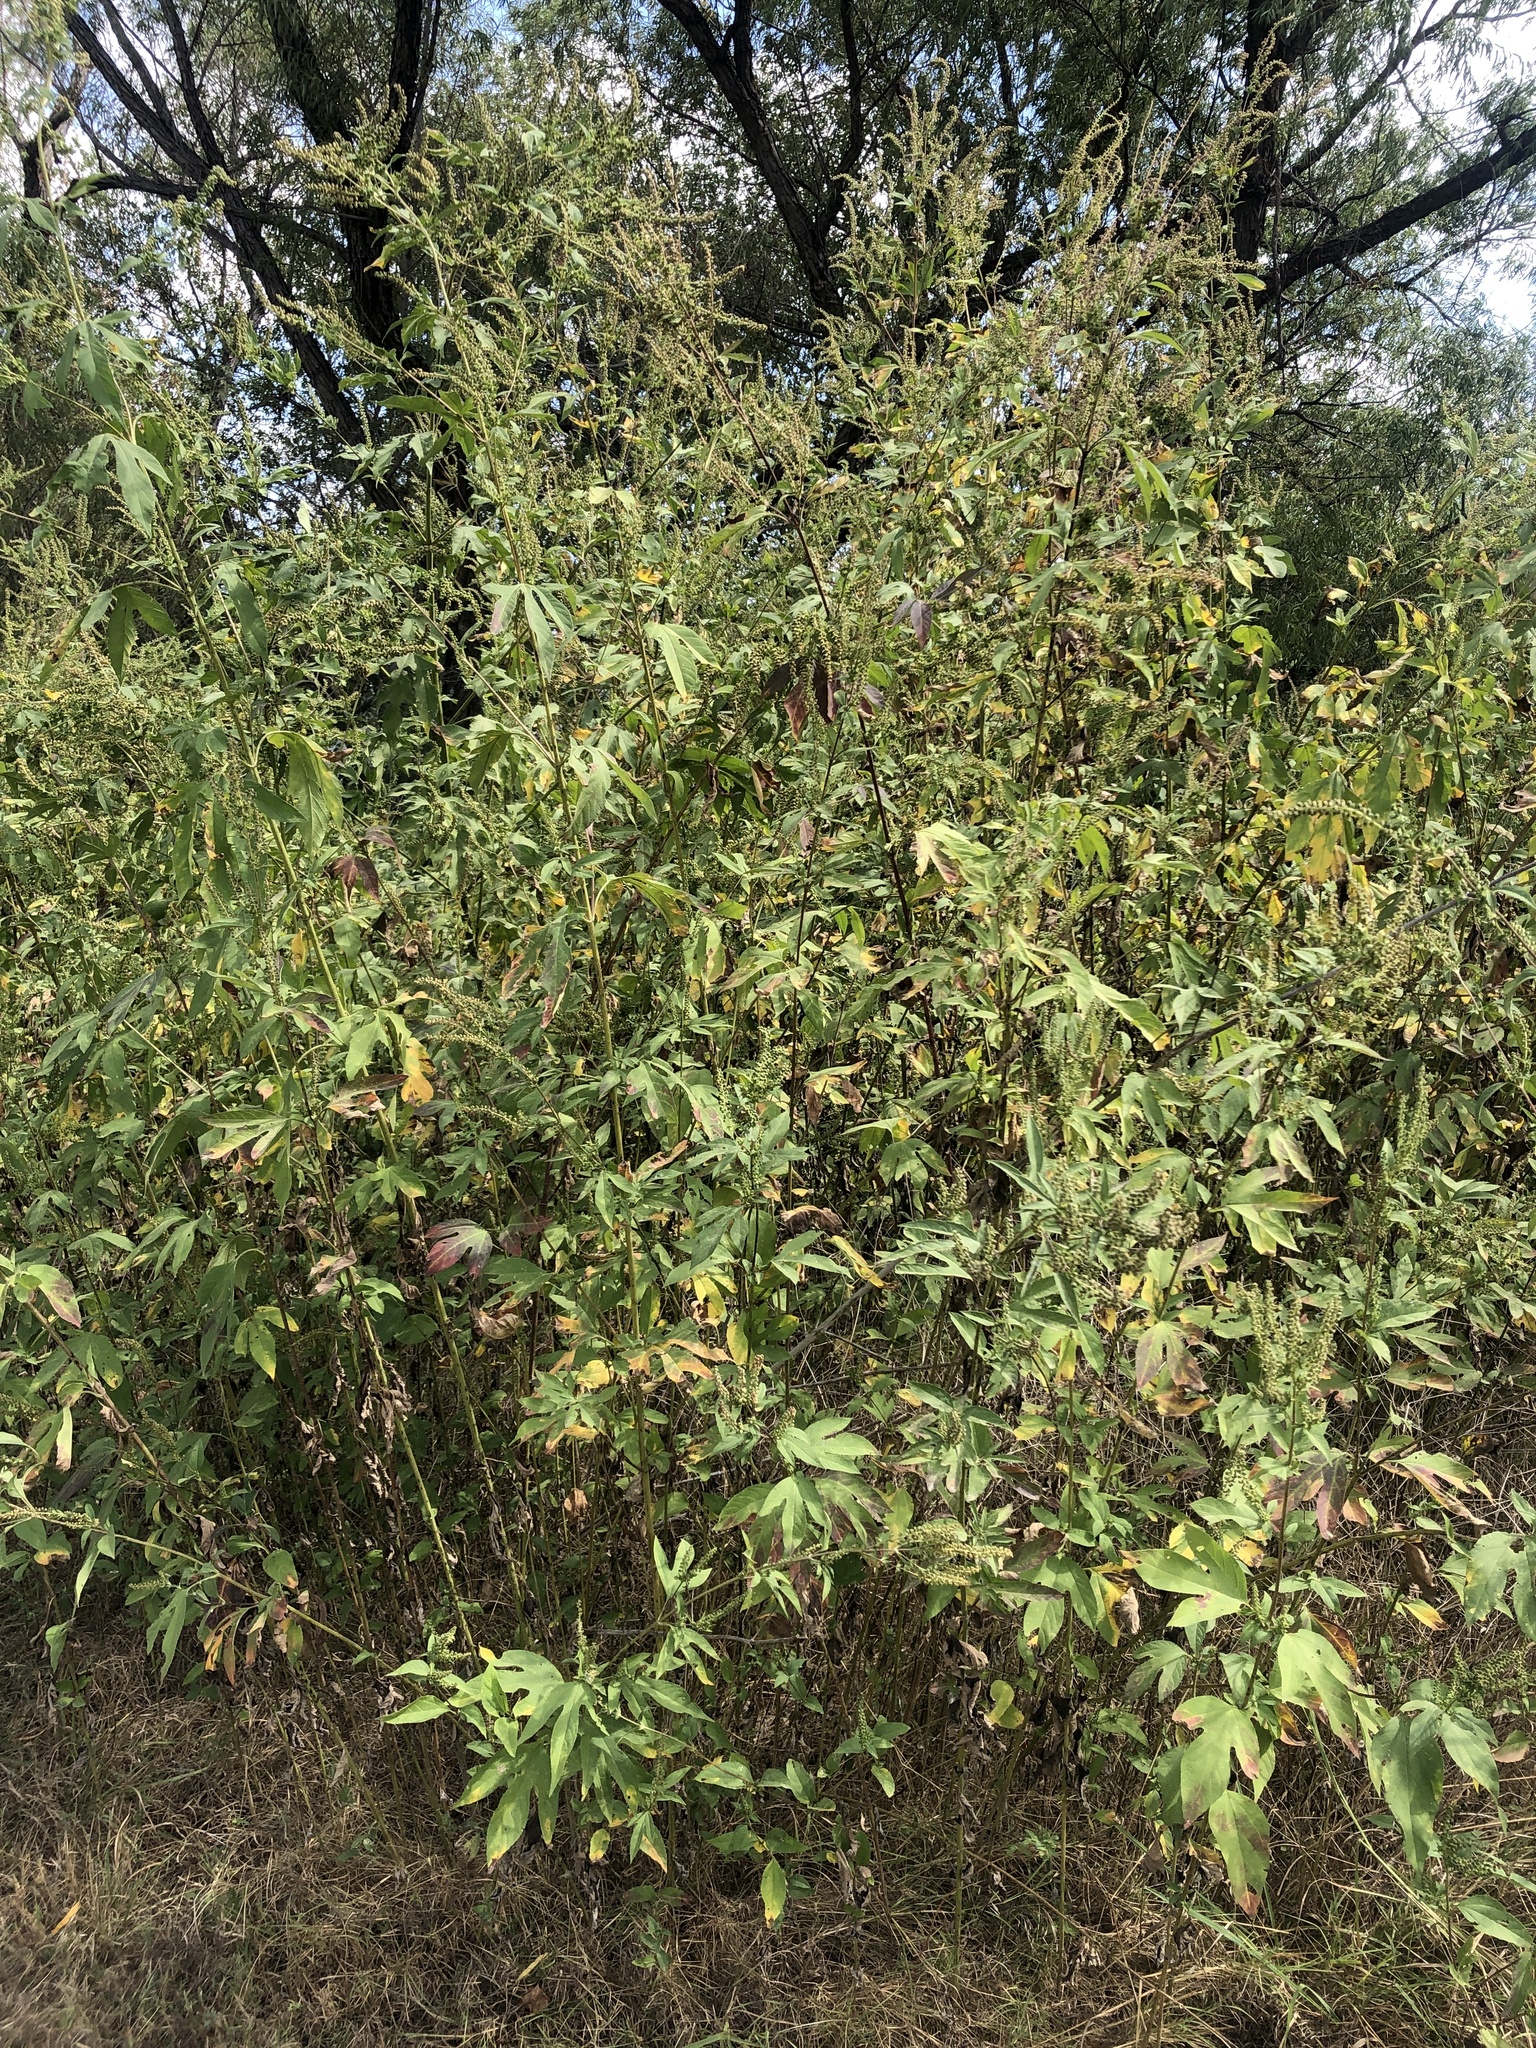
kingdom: Plantae
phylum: Tracheophyta
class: Magnoliopsida
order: Asterales
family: Asteraceae
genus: Ambrosia
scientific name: Ambrosia trifida
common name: Giant ragweed
